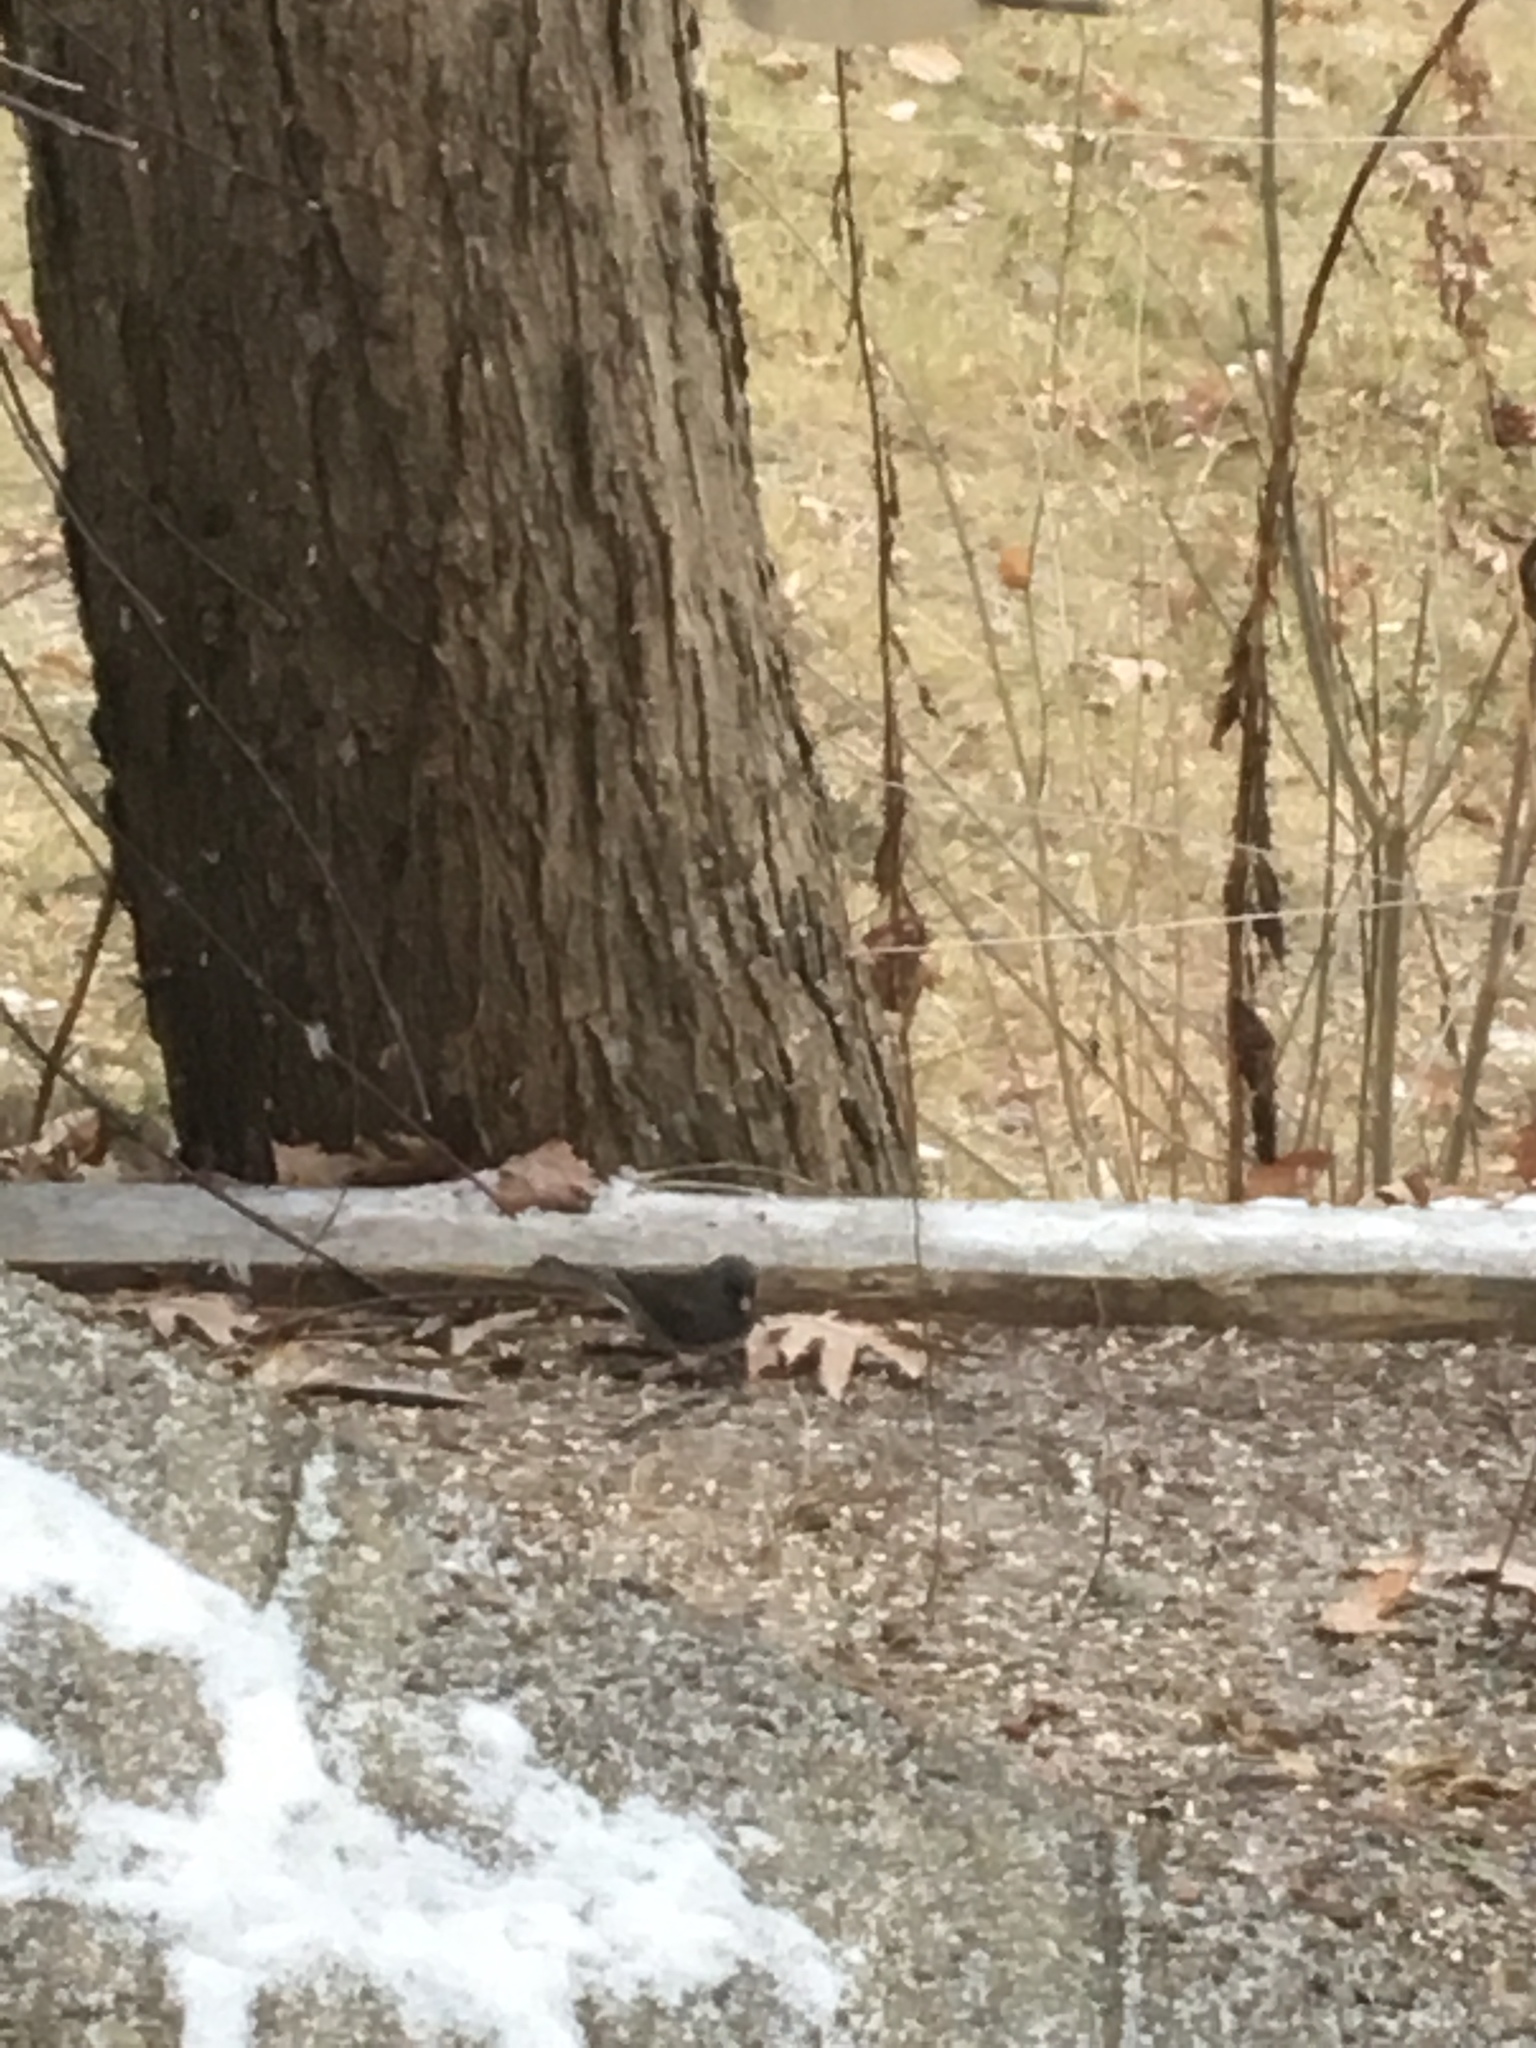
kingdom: Animalia
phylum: Chordata
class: Aves
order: Passeriformes
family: Passerellidae
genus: Junco
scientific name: Junco hyemalis
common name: Dark-eyed junco
